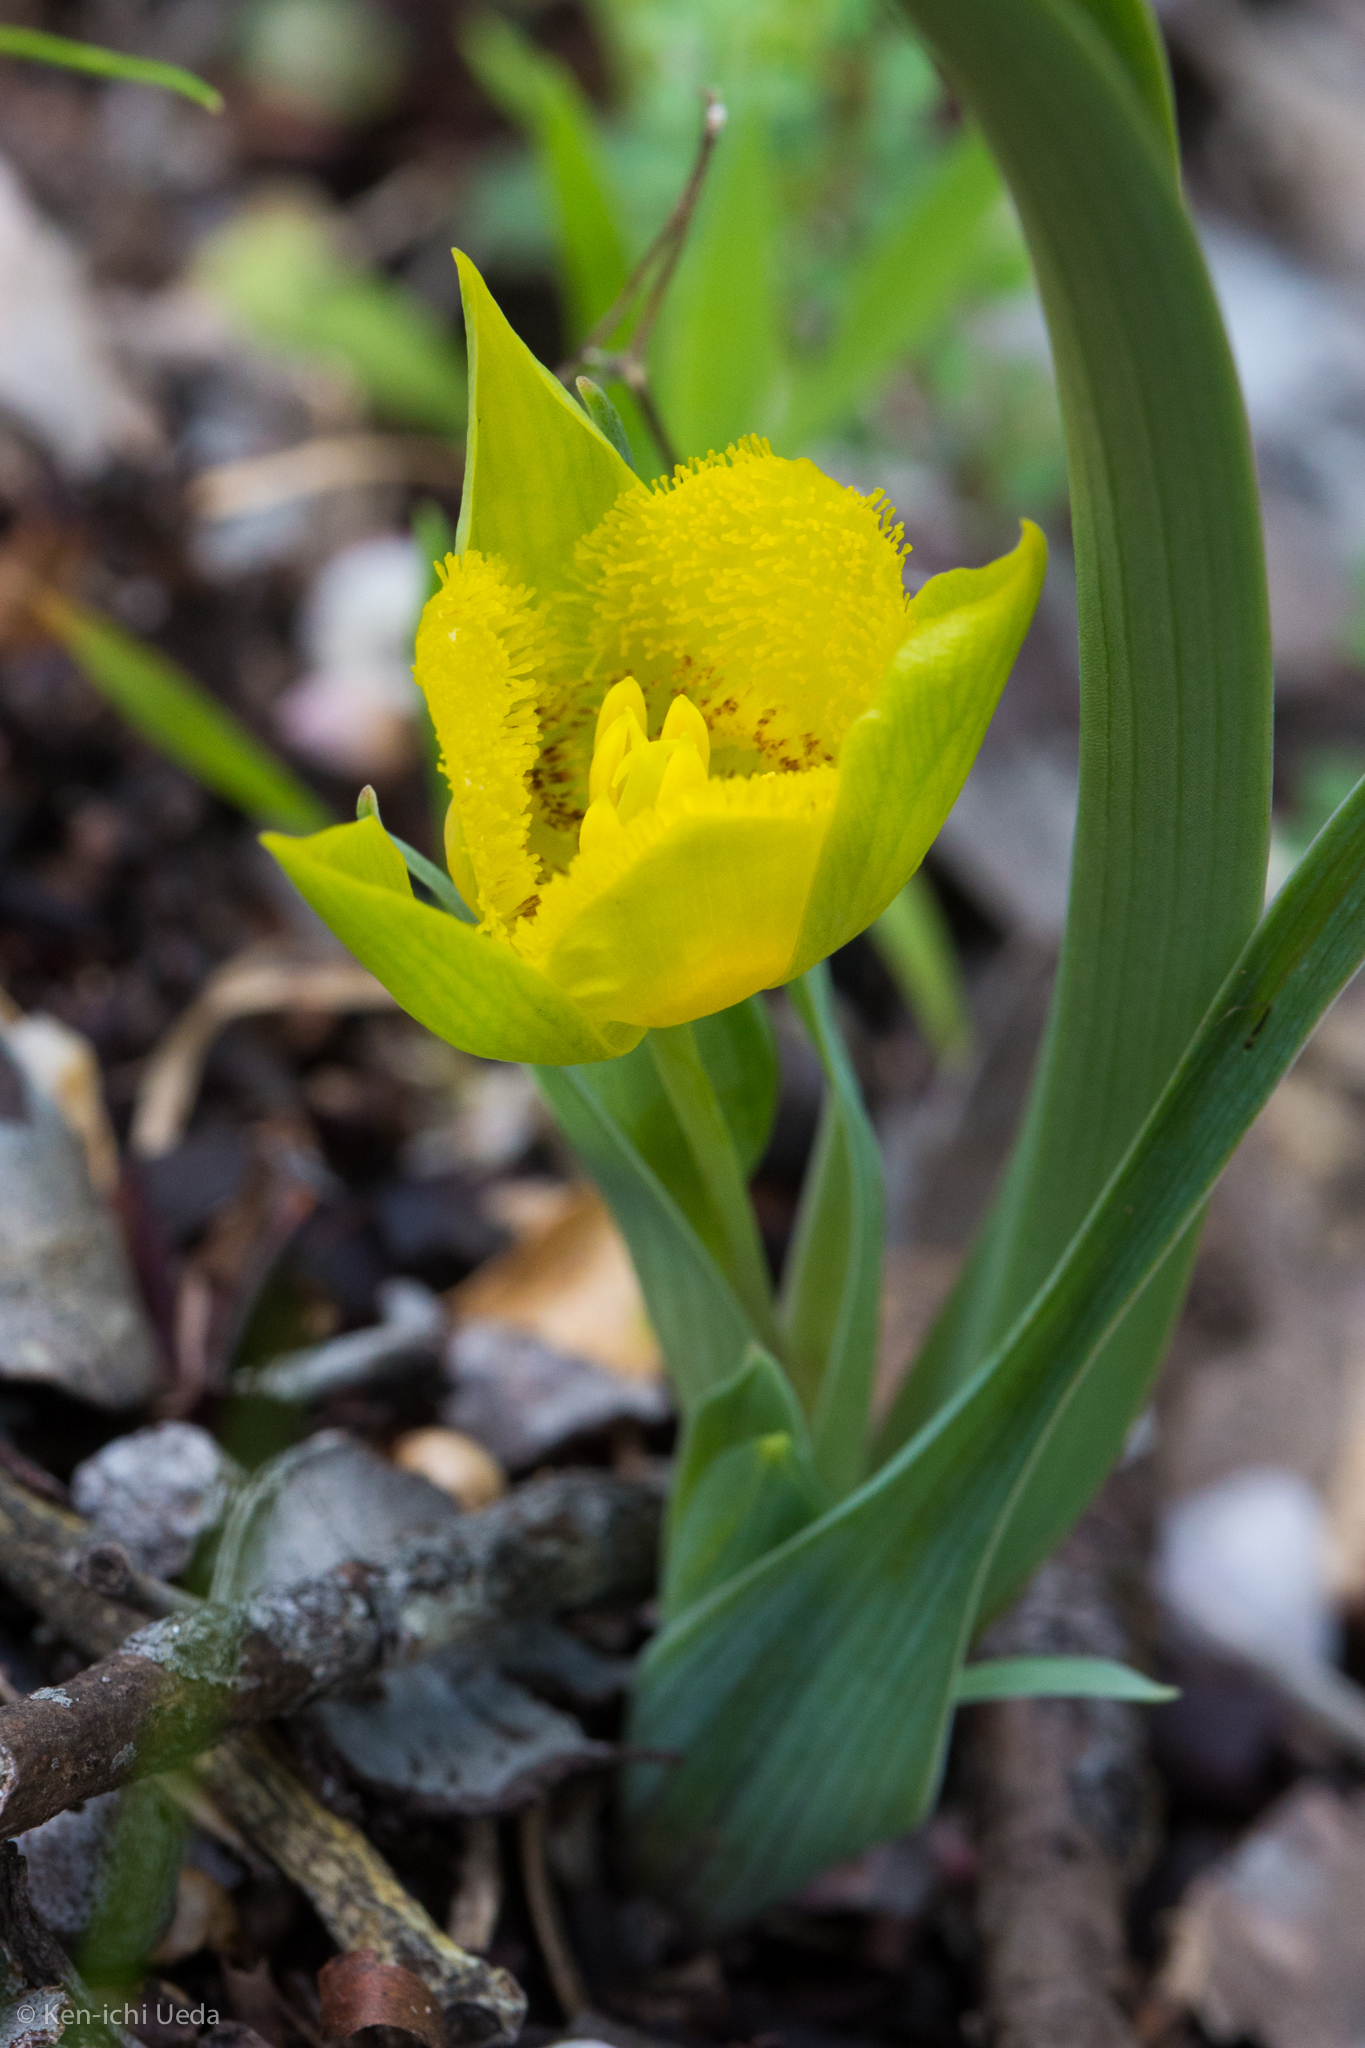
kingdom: Plantae
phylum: Tracheophyta
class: Liliopsida
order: Liliales
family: Liliaceae
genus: Calochortus
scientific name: Calochortus monophyllus
